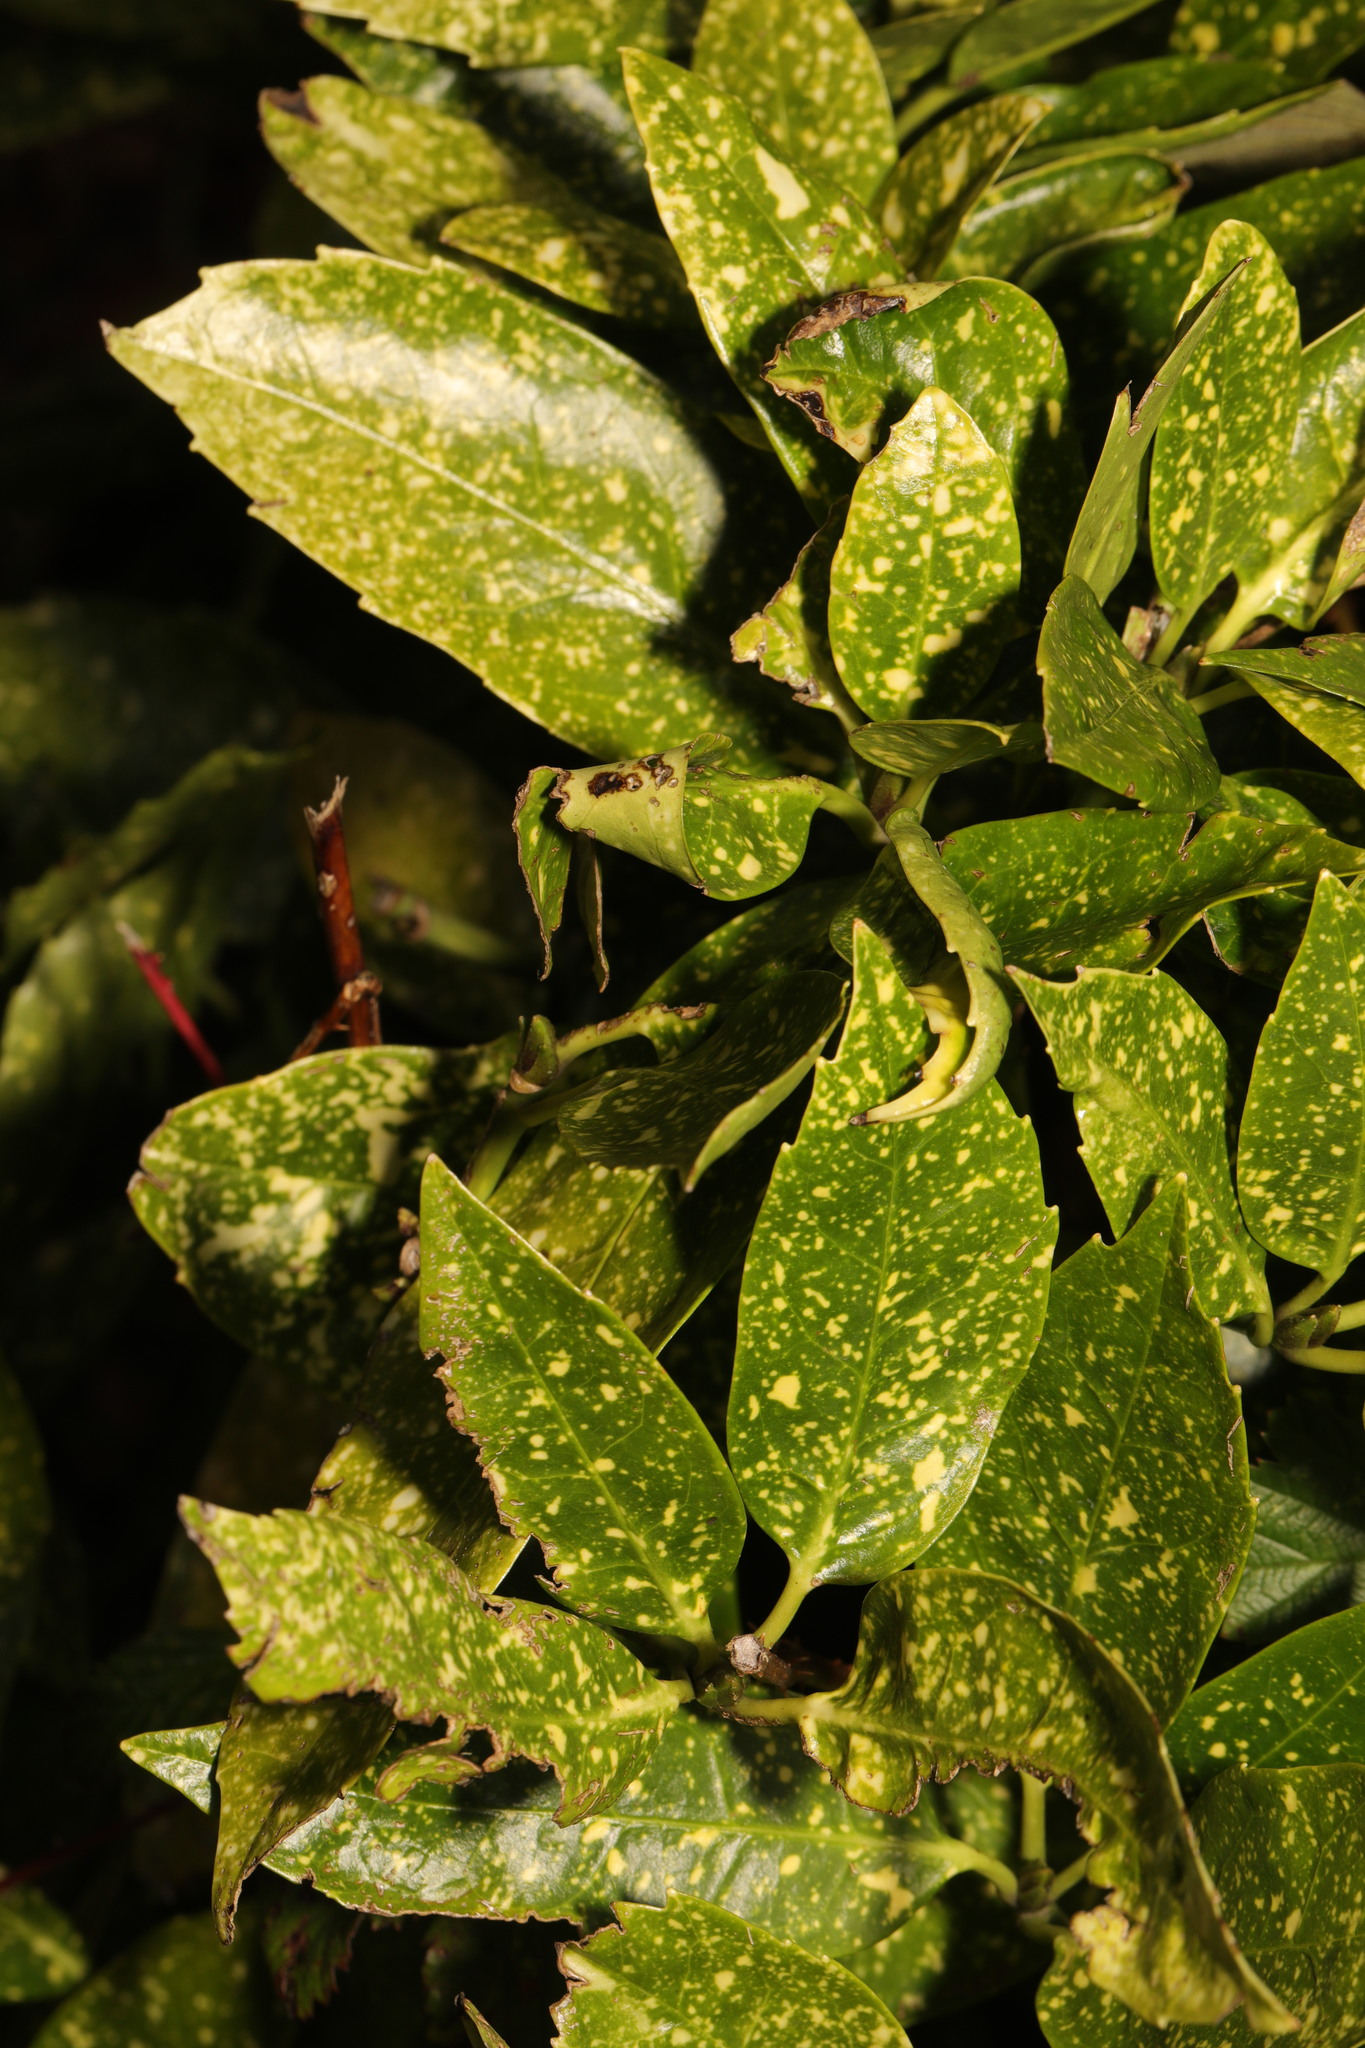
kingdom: Plantae
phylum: Tracheophyta
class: Magnoliopsida
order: Garryales
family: Garryaceae
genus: Aucuba
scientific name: Aucuba japonica
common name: Spotted-laurel
